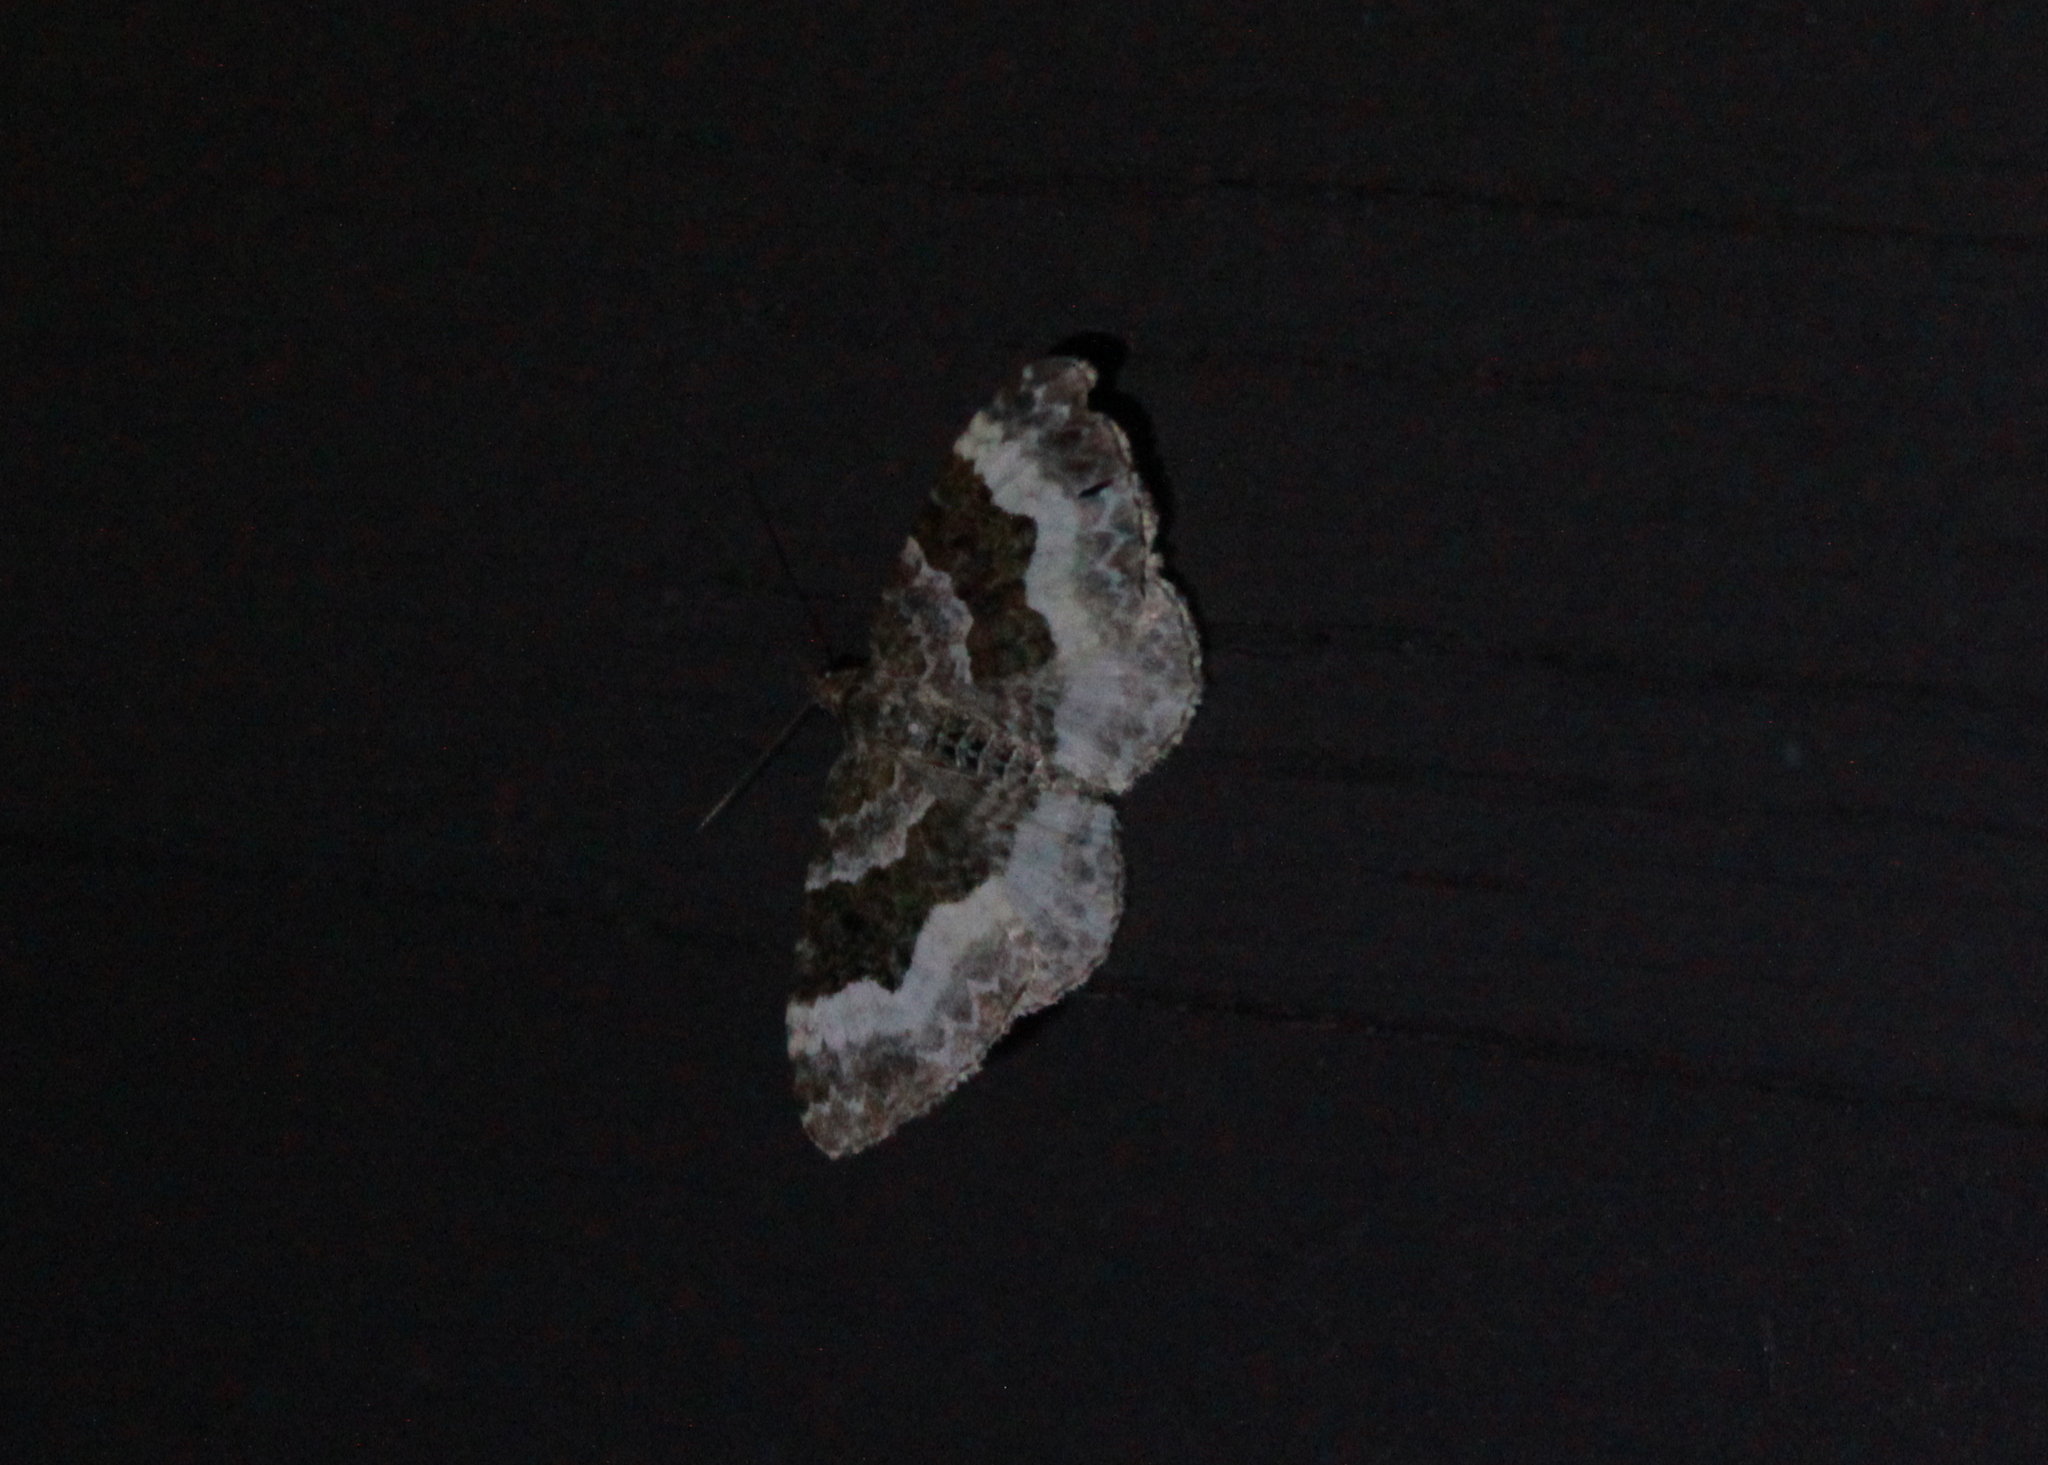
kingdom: Animalia
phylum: Arthropoda
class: Insecta
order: Lepidoptera
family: Geometridae
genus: Epirrhoe
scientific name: Epirrhoe alternata
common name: Common carpet
